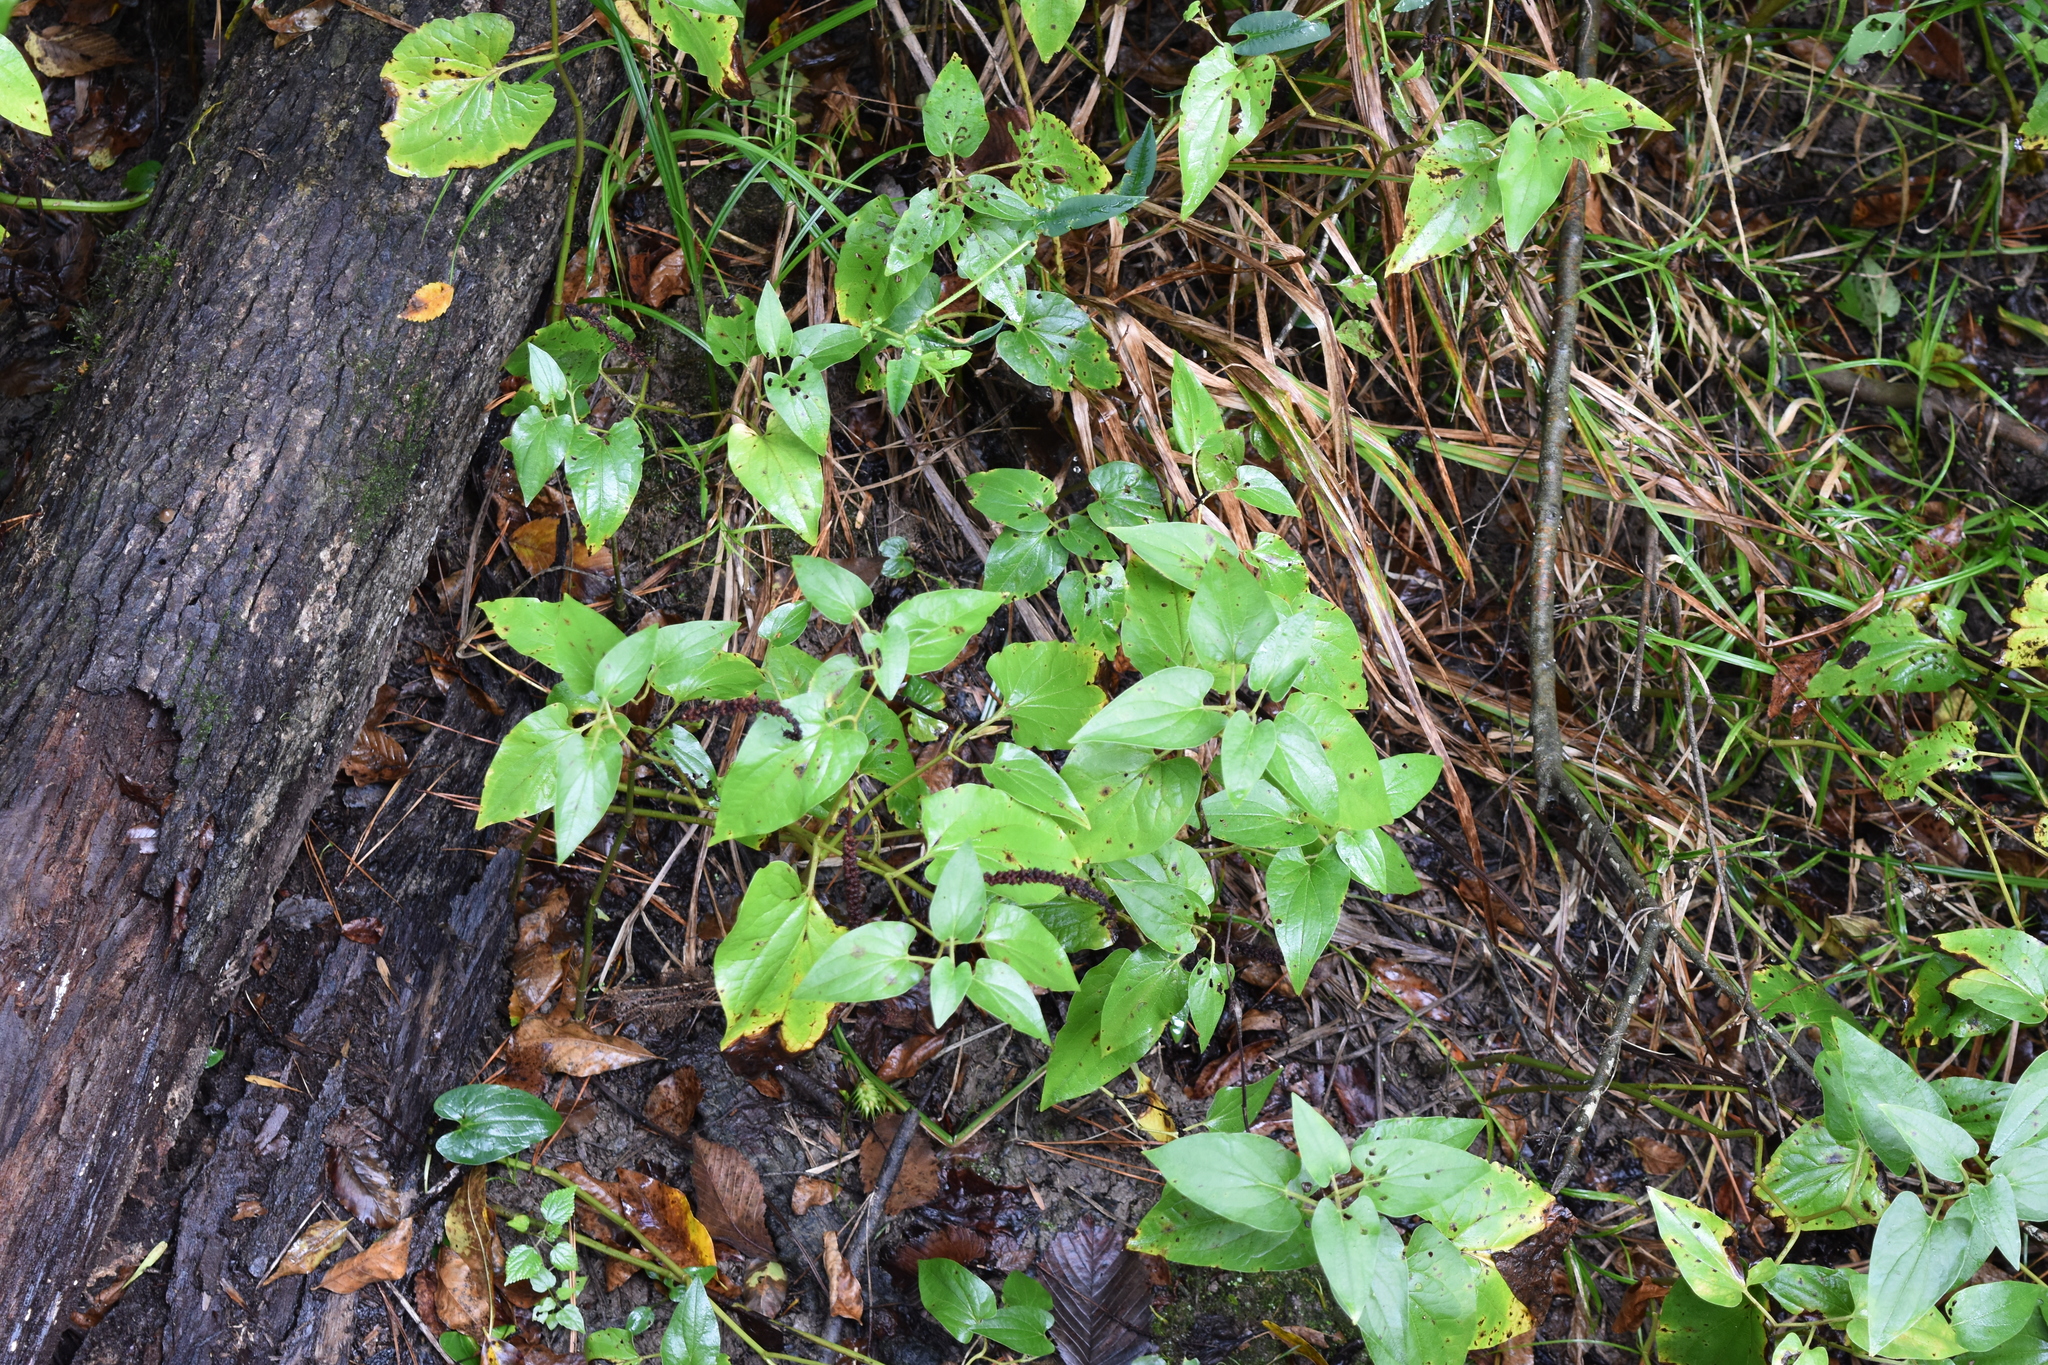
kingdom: Plantae
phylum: Tracheophyta
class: Magnoliopsida
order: Piperales
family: Saururaceae
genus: Saururus
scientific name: Saururus cernuus
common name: Lizard's-tail
